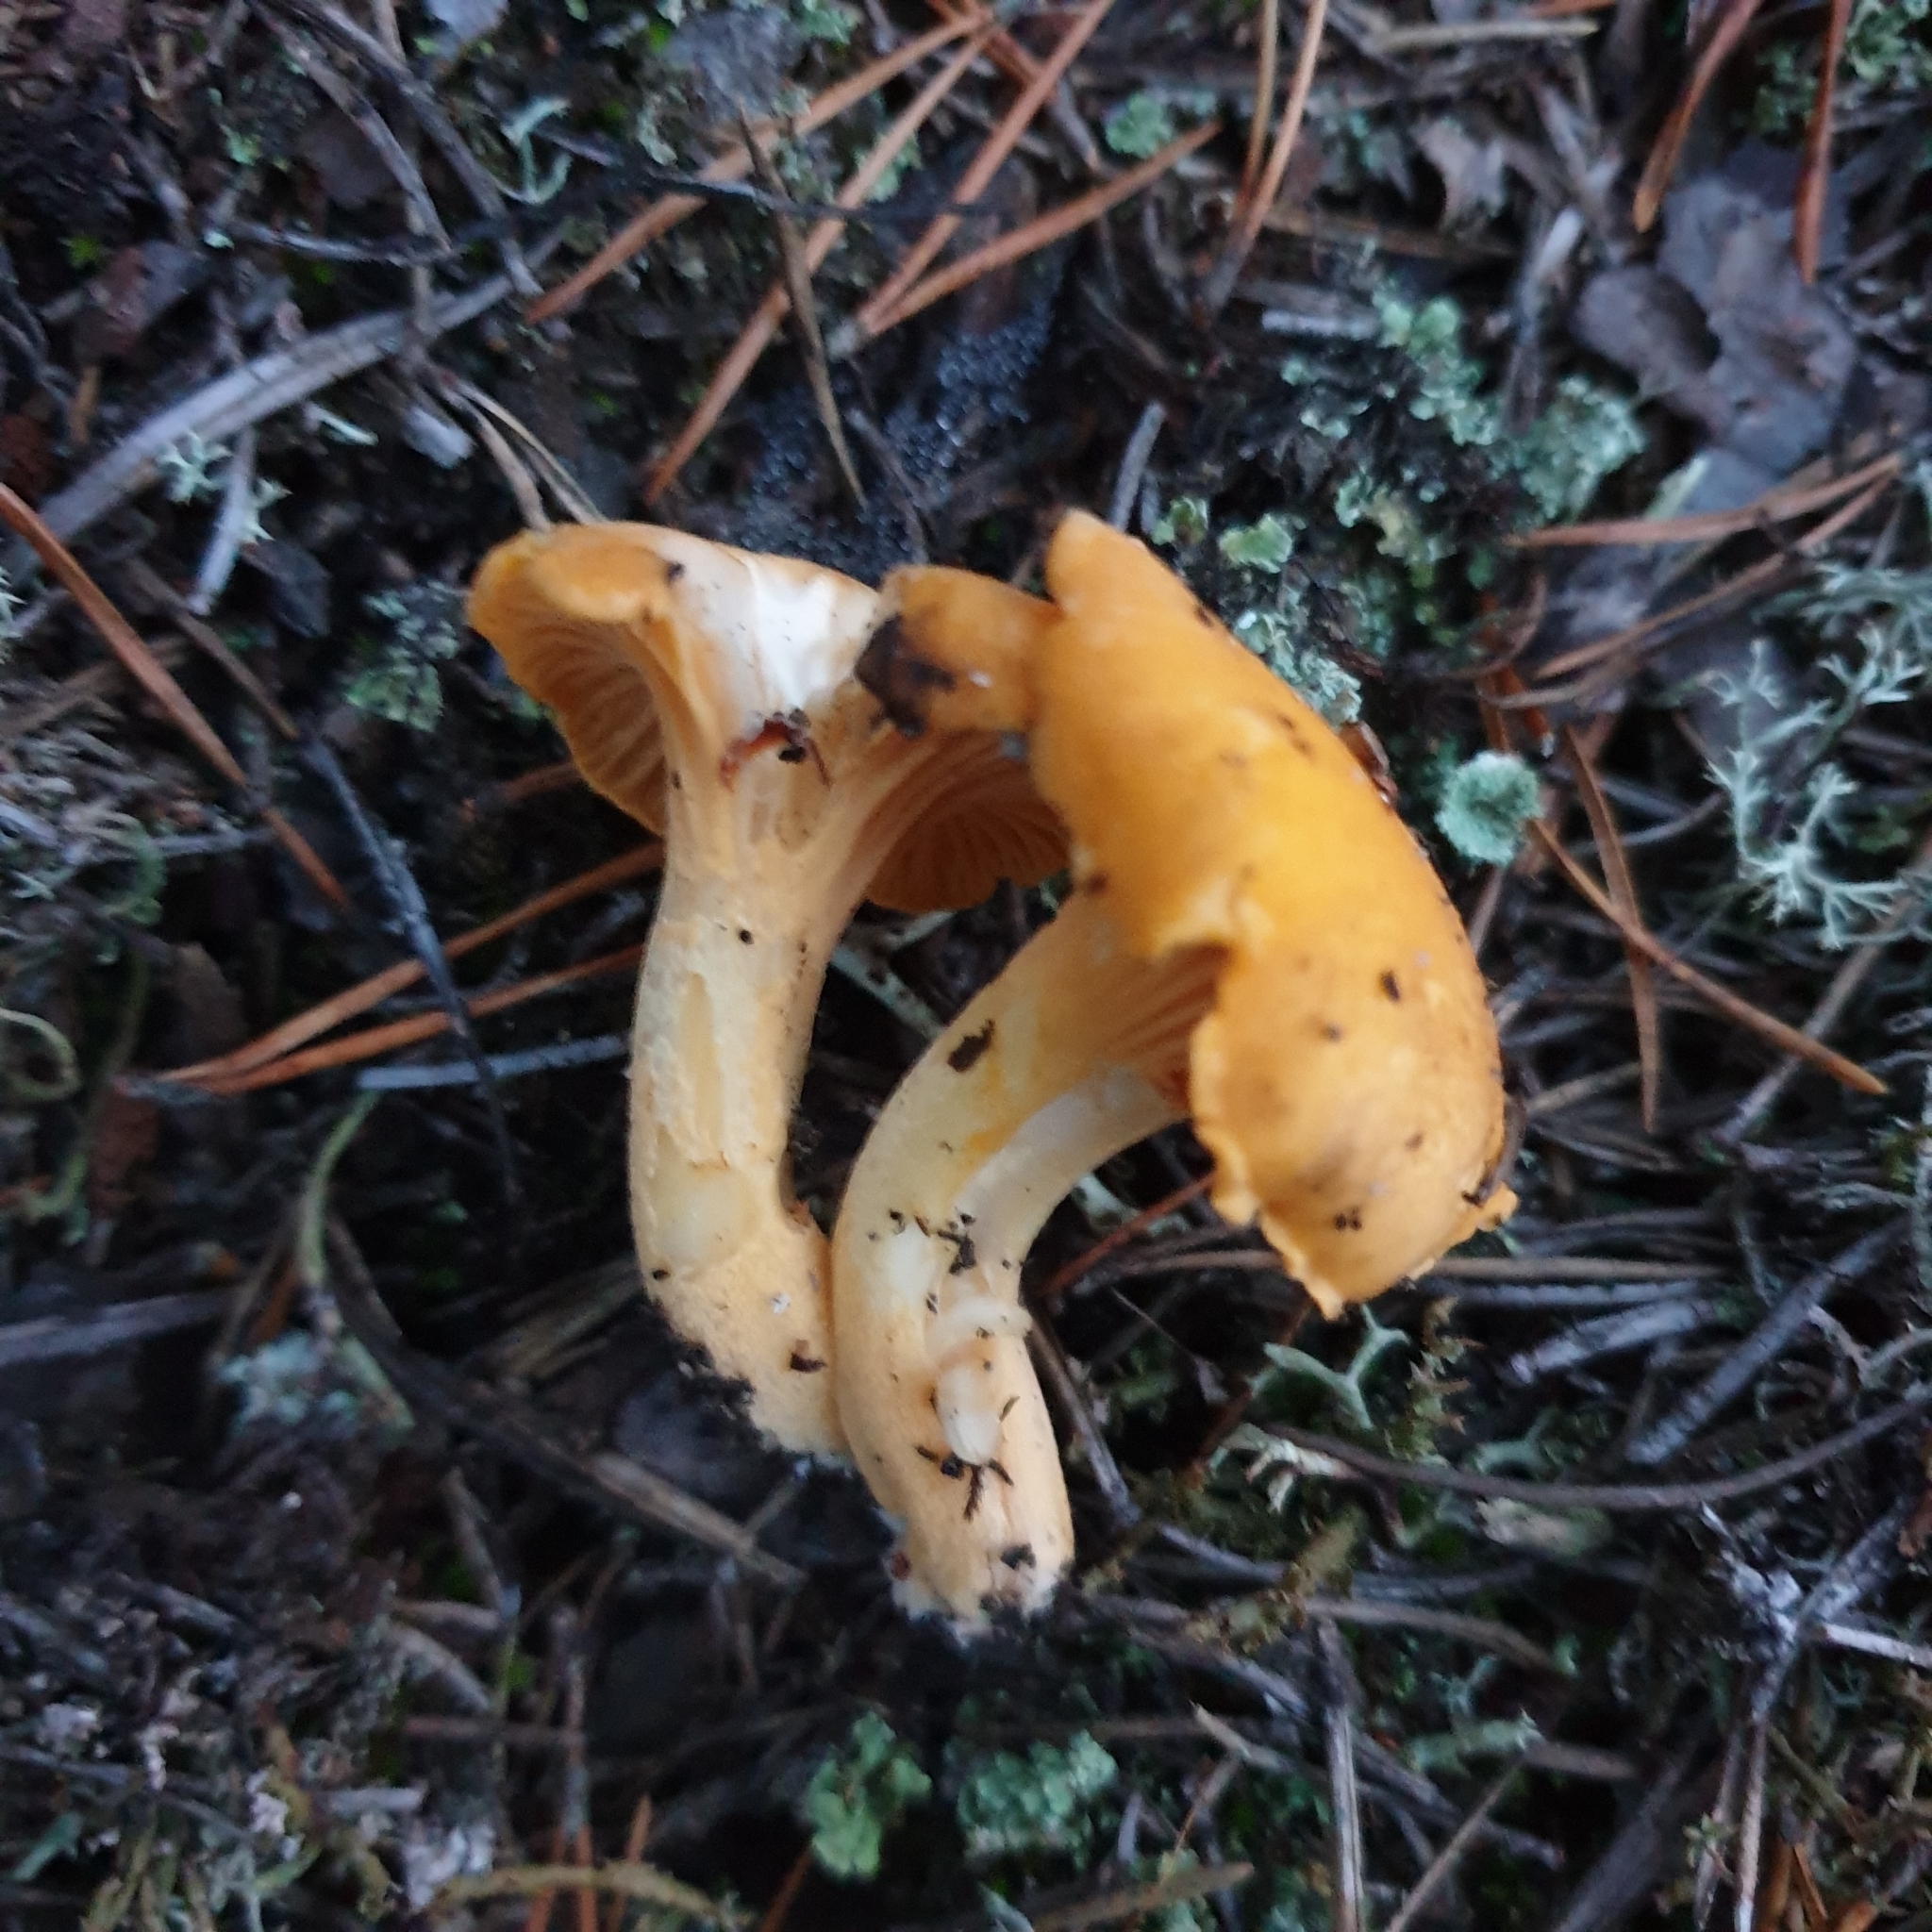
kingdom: Fungi
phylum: Basidiomycota
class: Agaricomycetes
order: Cantharellales
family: Hydnaceae
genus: Cantharellus
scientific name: Cantharellus cibarius
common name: Chanterelle
